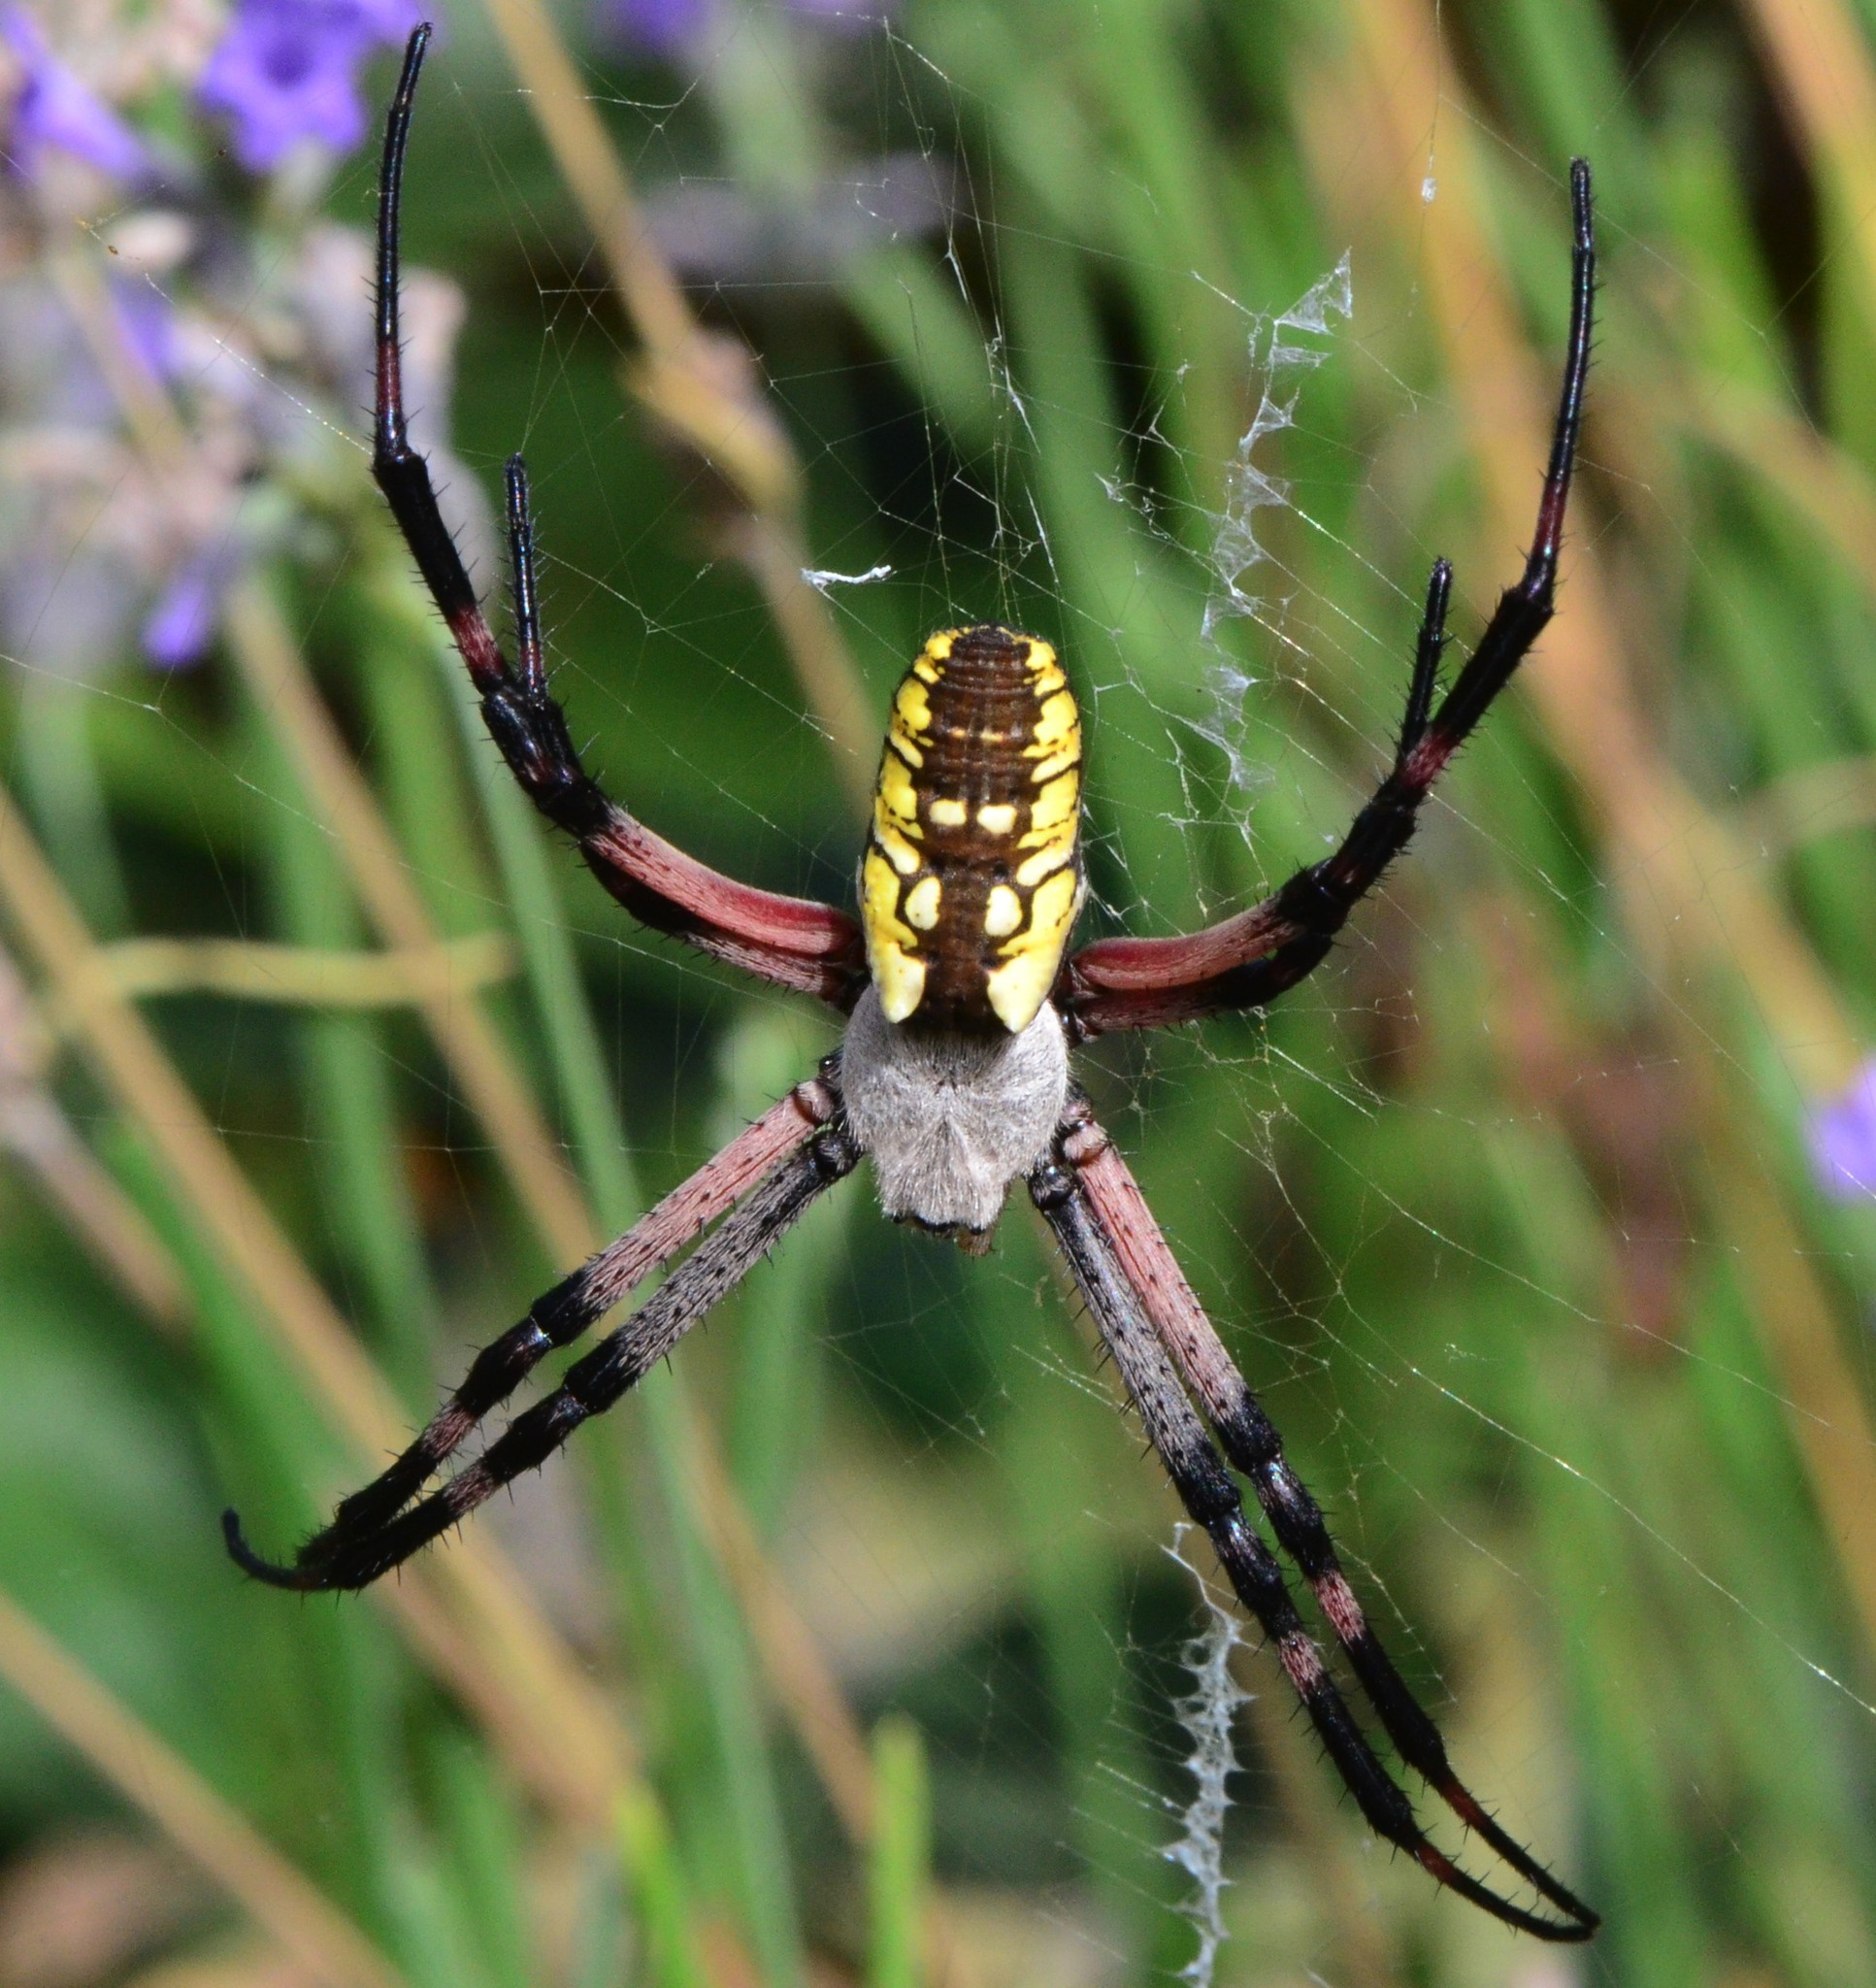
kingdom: Animalia
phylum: Arthropoda
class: Arachnida
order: Araneae
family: Araneidae
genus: Argiope
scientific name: Argiope aurantia
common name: Orb weavers
